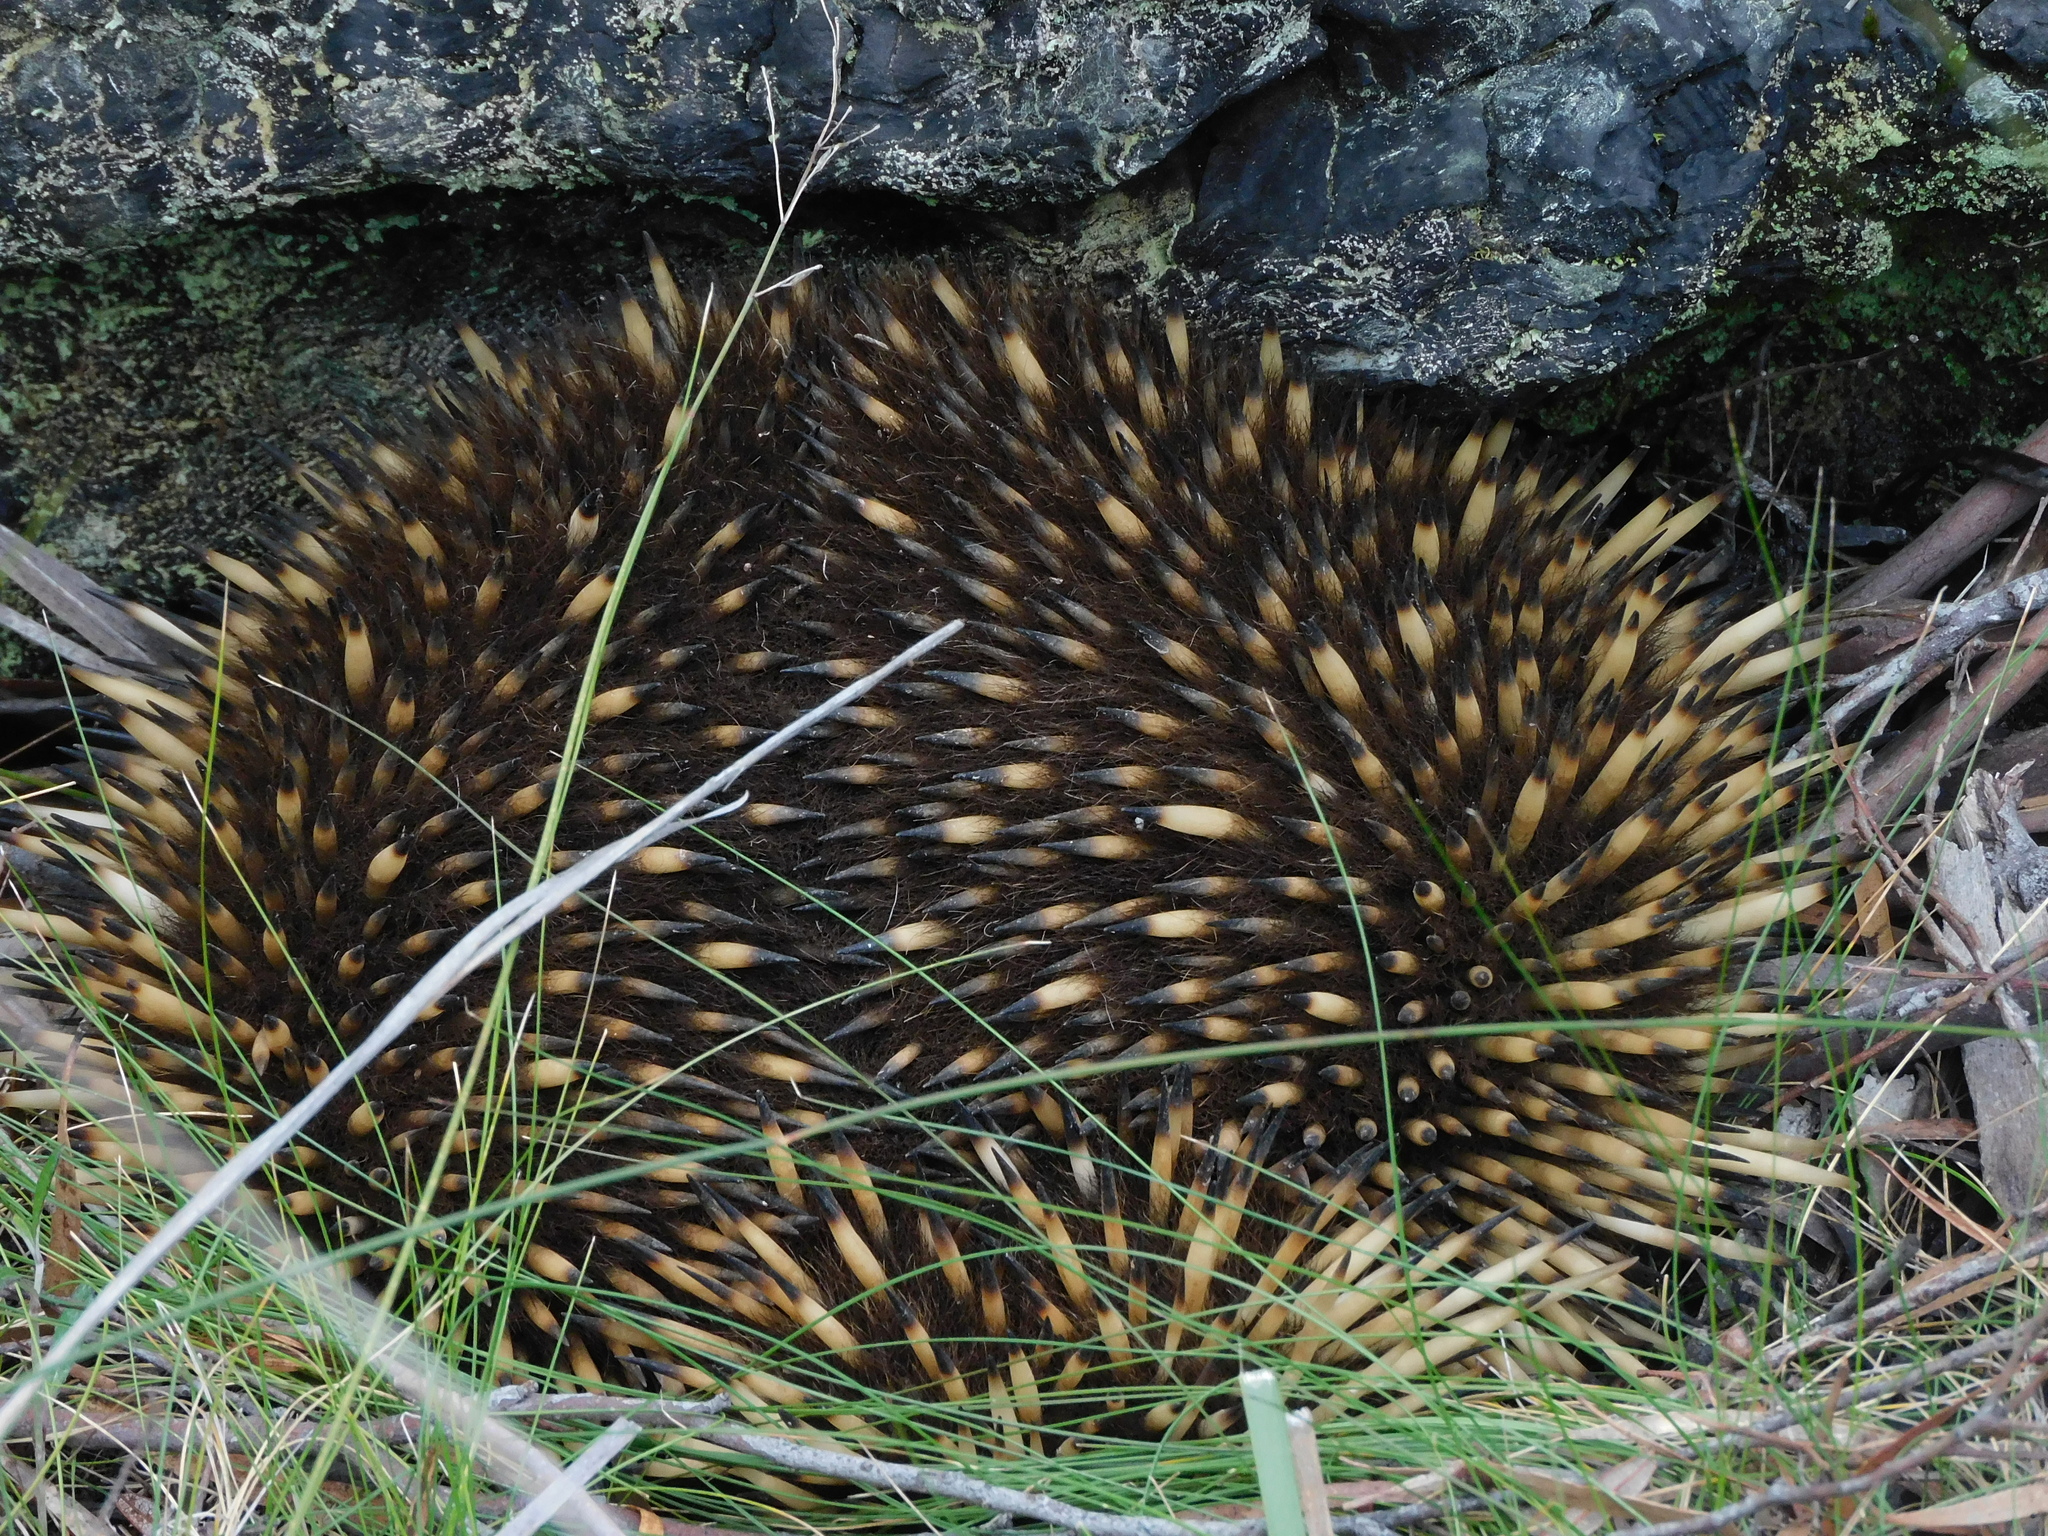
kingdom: Animalia
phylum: Chordata
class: Mammalia
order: Monotremata
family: Tachyglossidae
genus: Tachyglossus
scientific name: Tachyglossus aculeatus
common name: Short-beaked echidna
